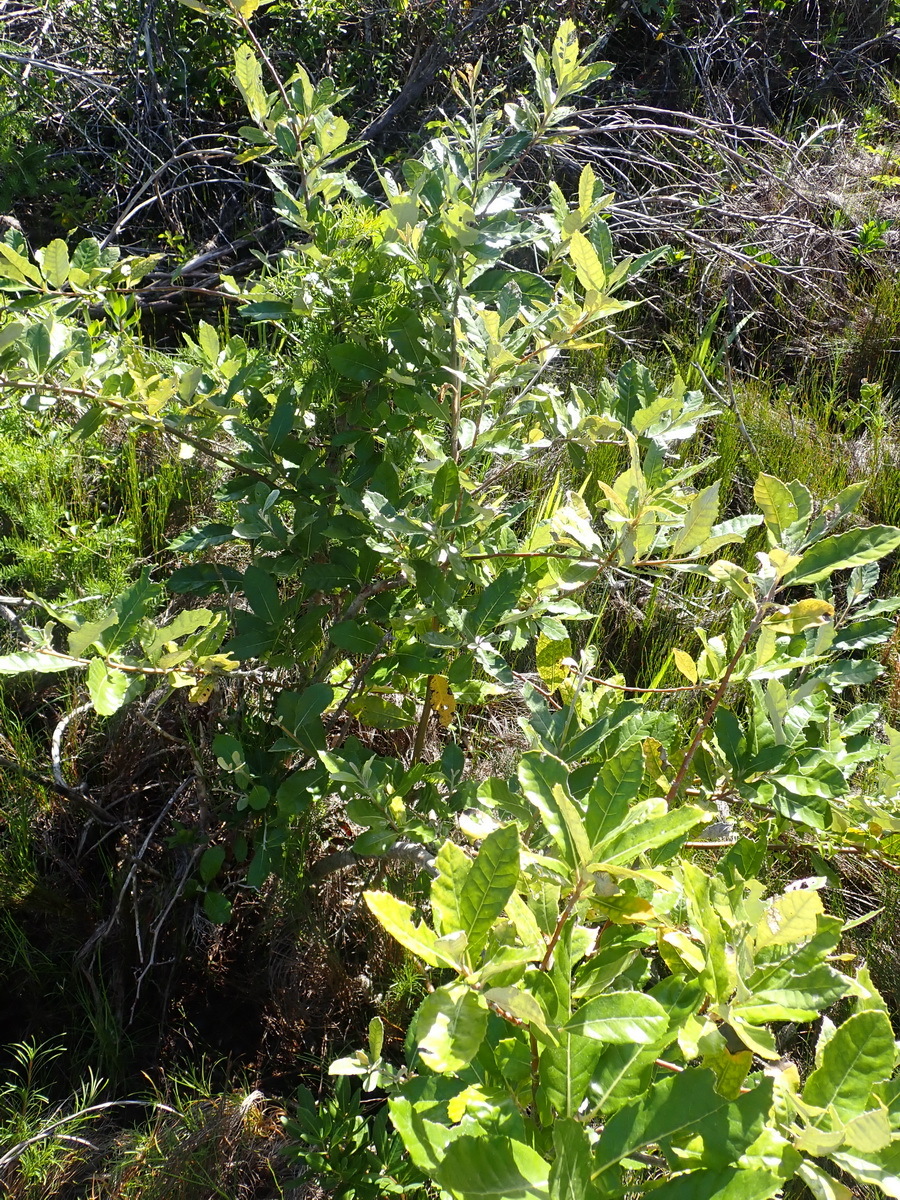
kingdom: Plantae
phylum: Tracheophyta
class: Magnoliopsida
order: Asterales
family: Asteraceae
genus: Brachylaena
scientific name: Brachylaena discolor
